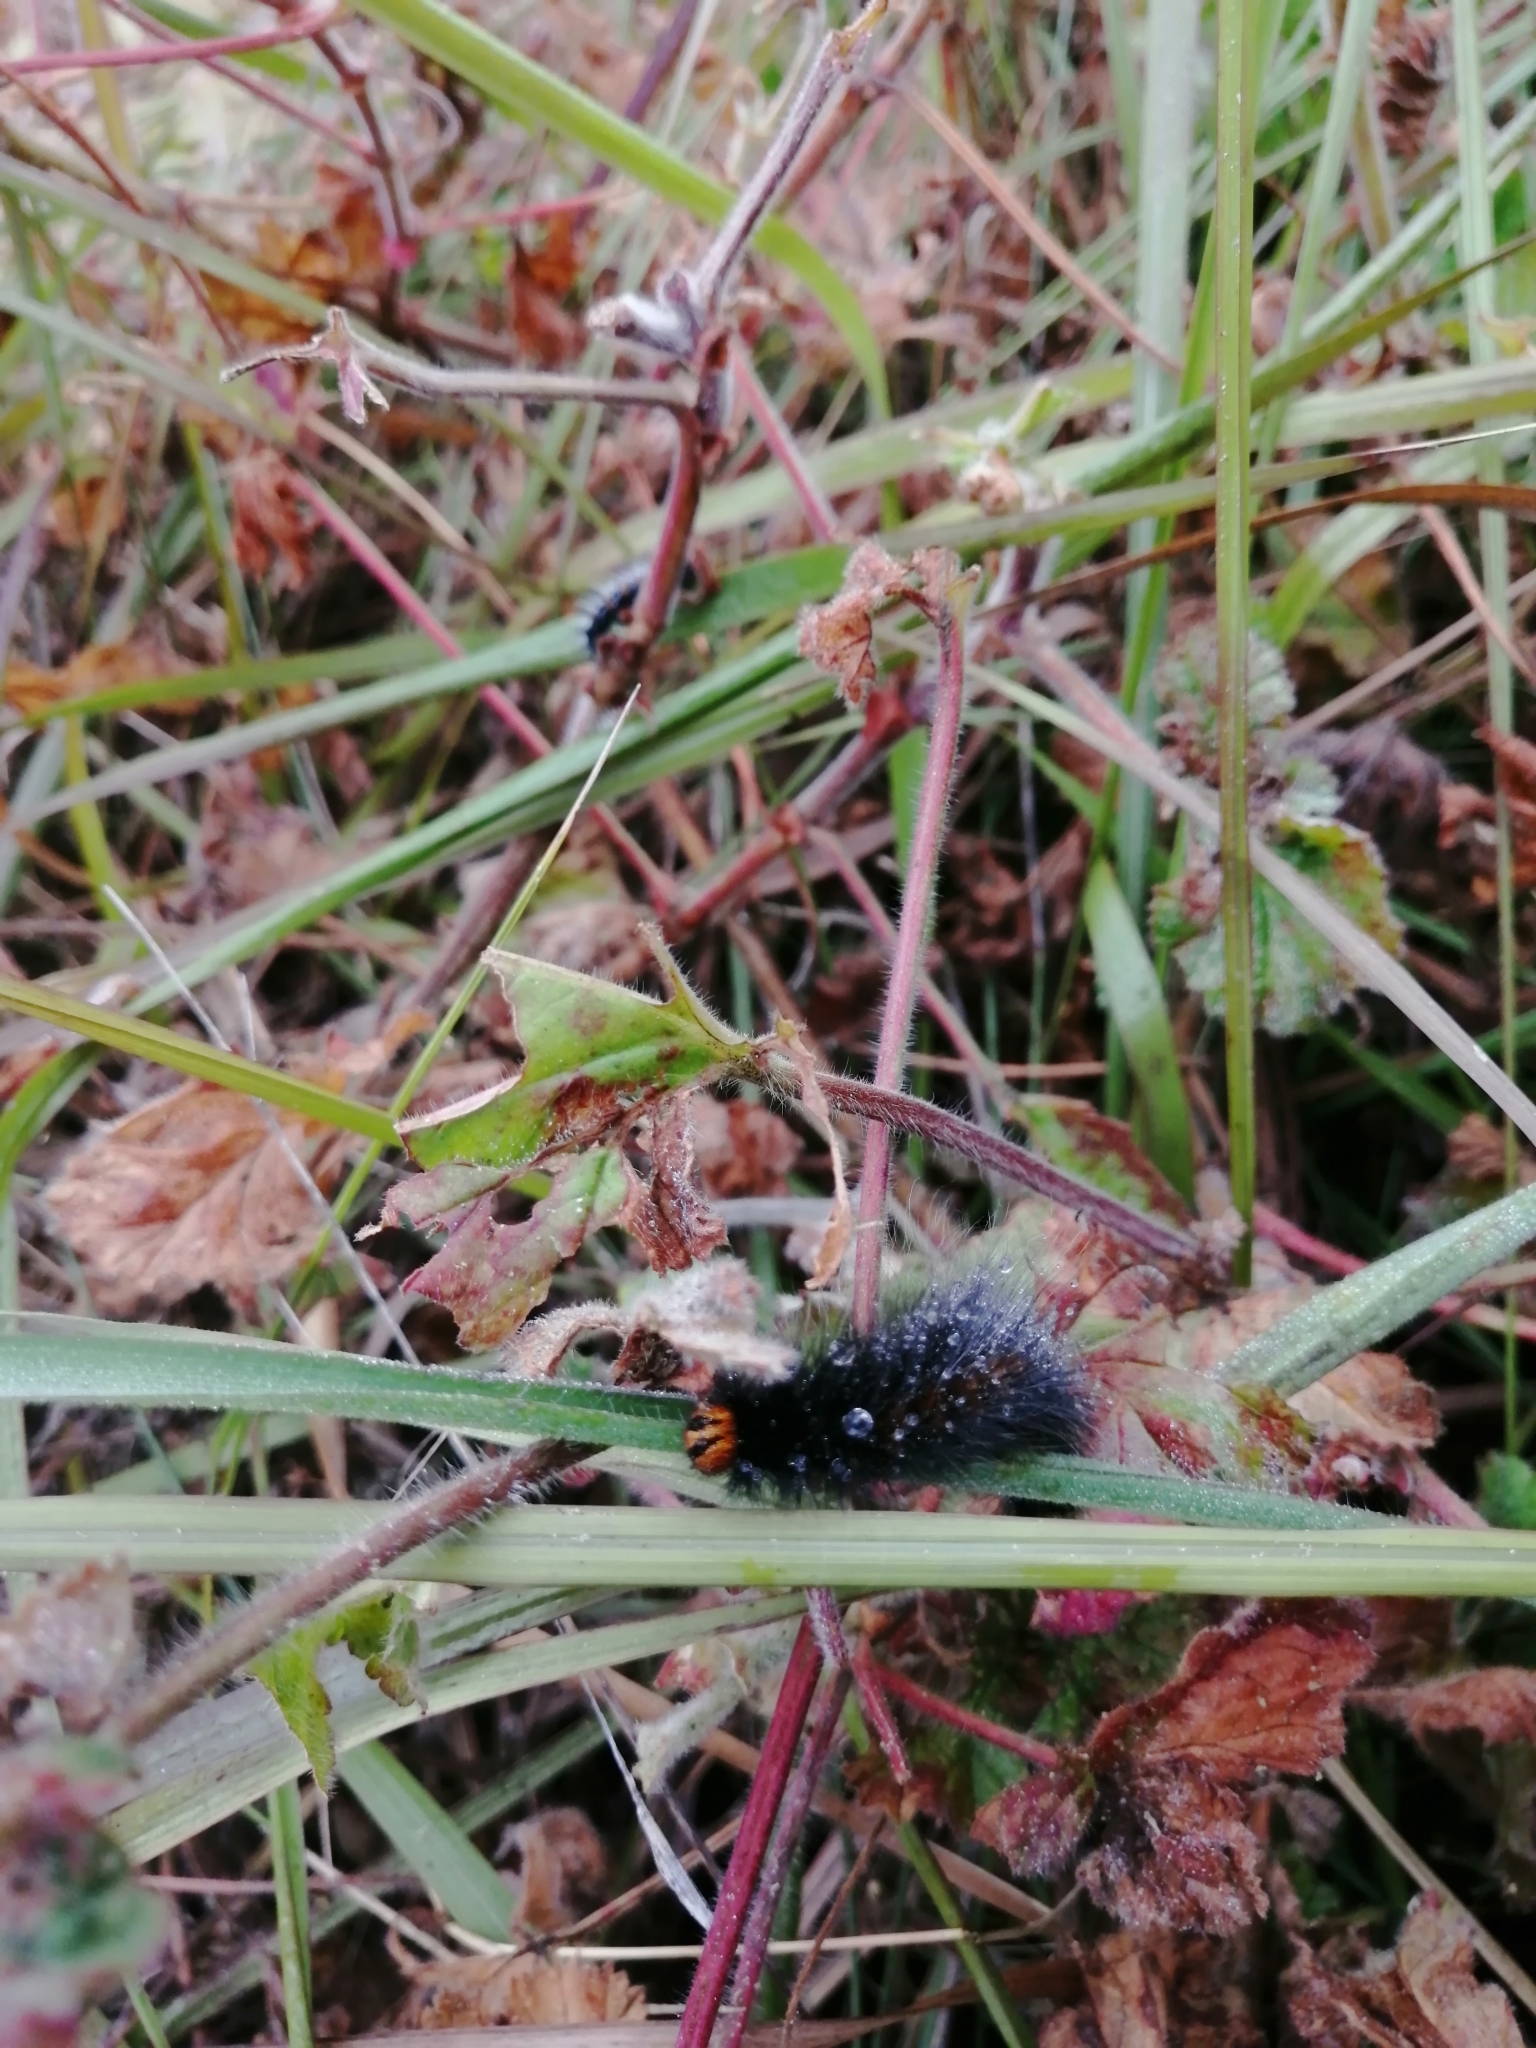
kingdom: Animalia
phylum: Arthropoda
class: Insecta
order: Lepidoptera
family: Lasiocampidae
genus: Mesocelis
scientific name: Mesocelis monticola
